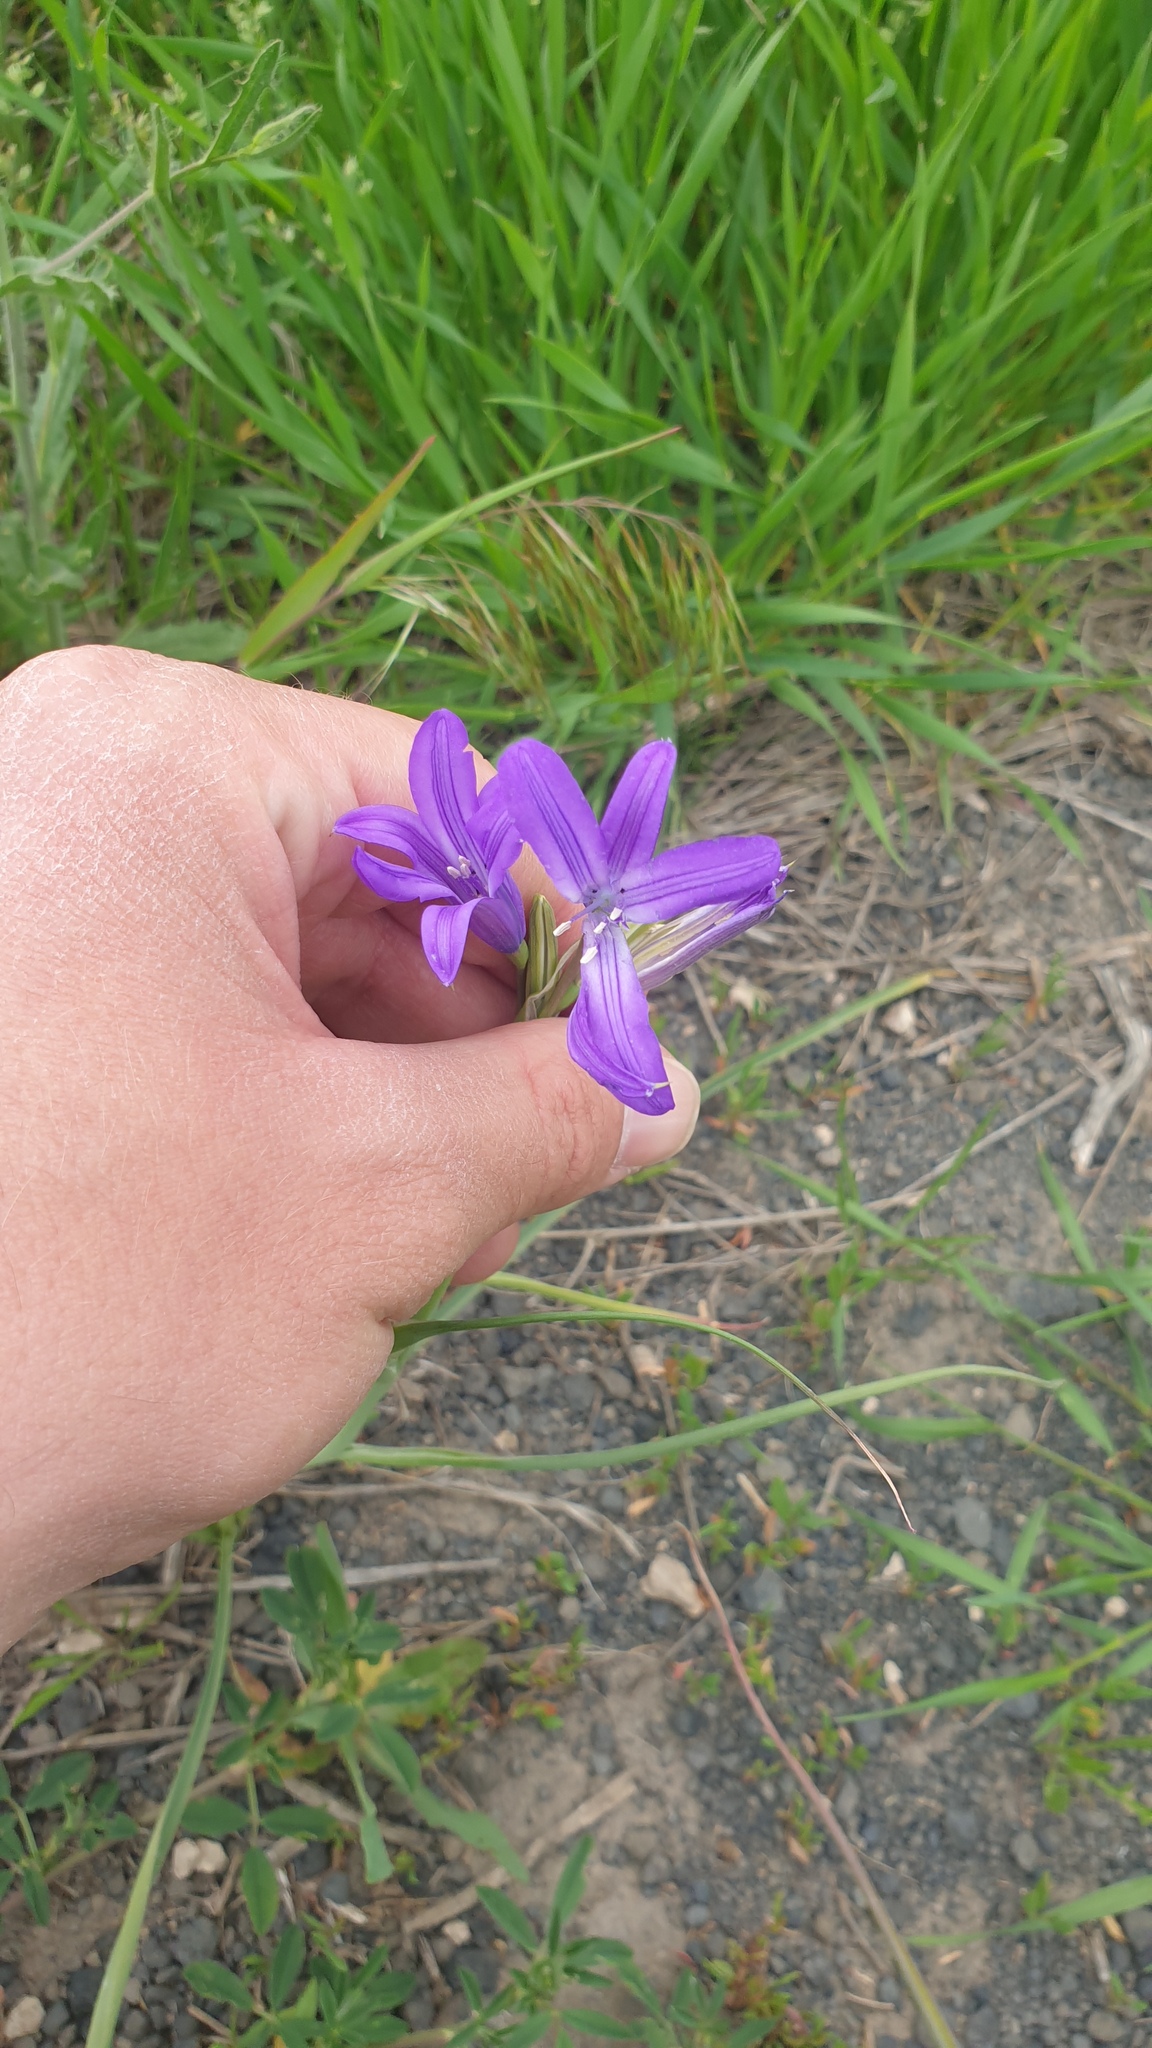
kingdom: Plantae
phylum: Tracheophyta
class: Liliopsida
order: Asparagales
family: Ixioliriaceae
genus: Ixiolirion
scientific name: Ixiolirion tataricum
